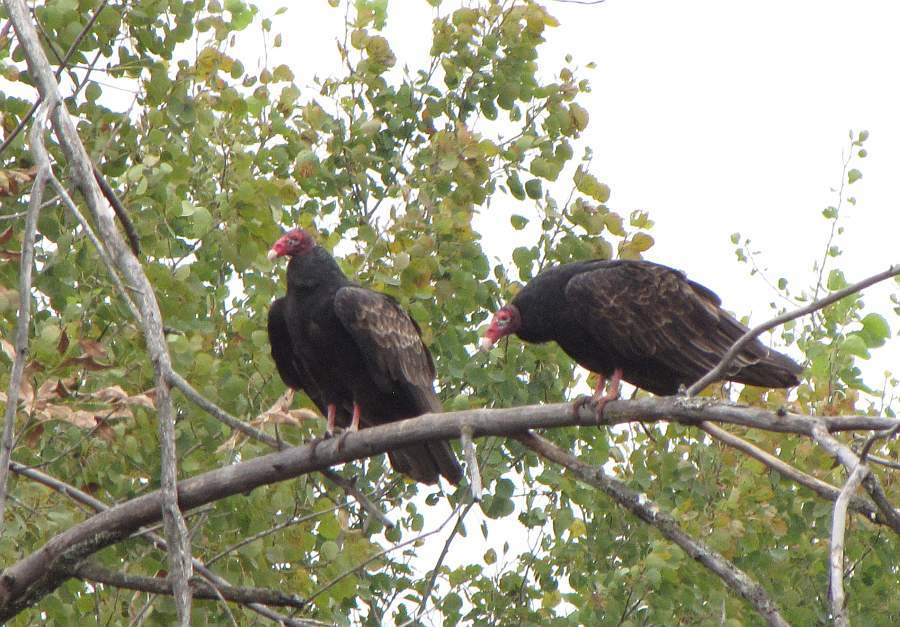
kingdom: Animalia
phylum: Chordata
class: Aves
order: Accipitriformes
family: Cathartidae
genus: Cathartes
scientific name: Cathartes aura
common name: Turkey vulture
